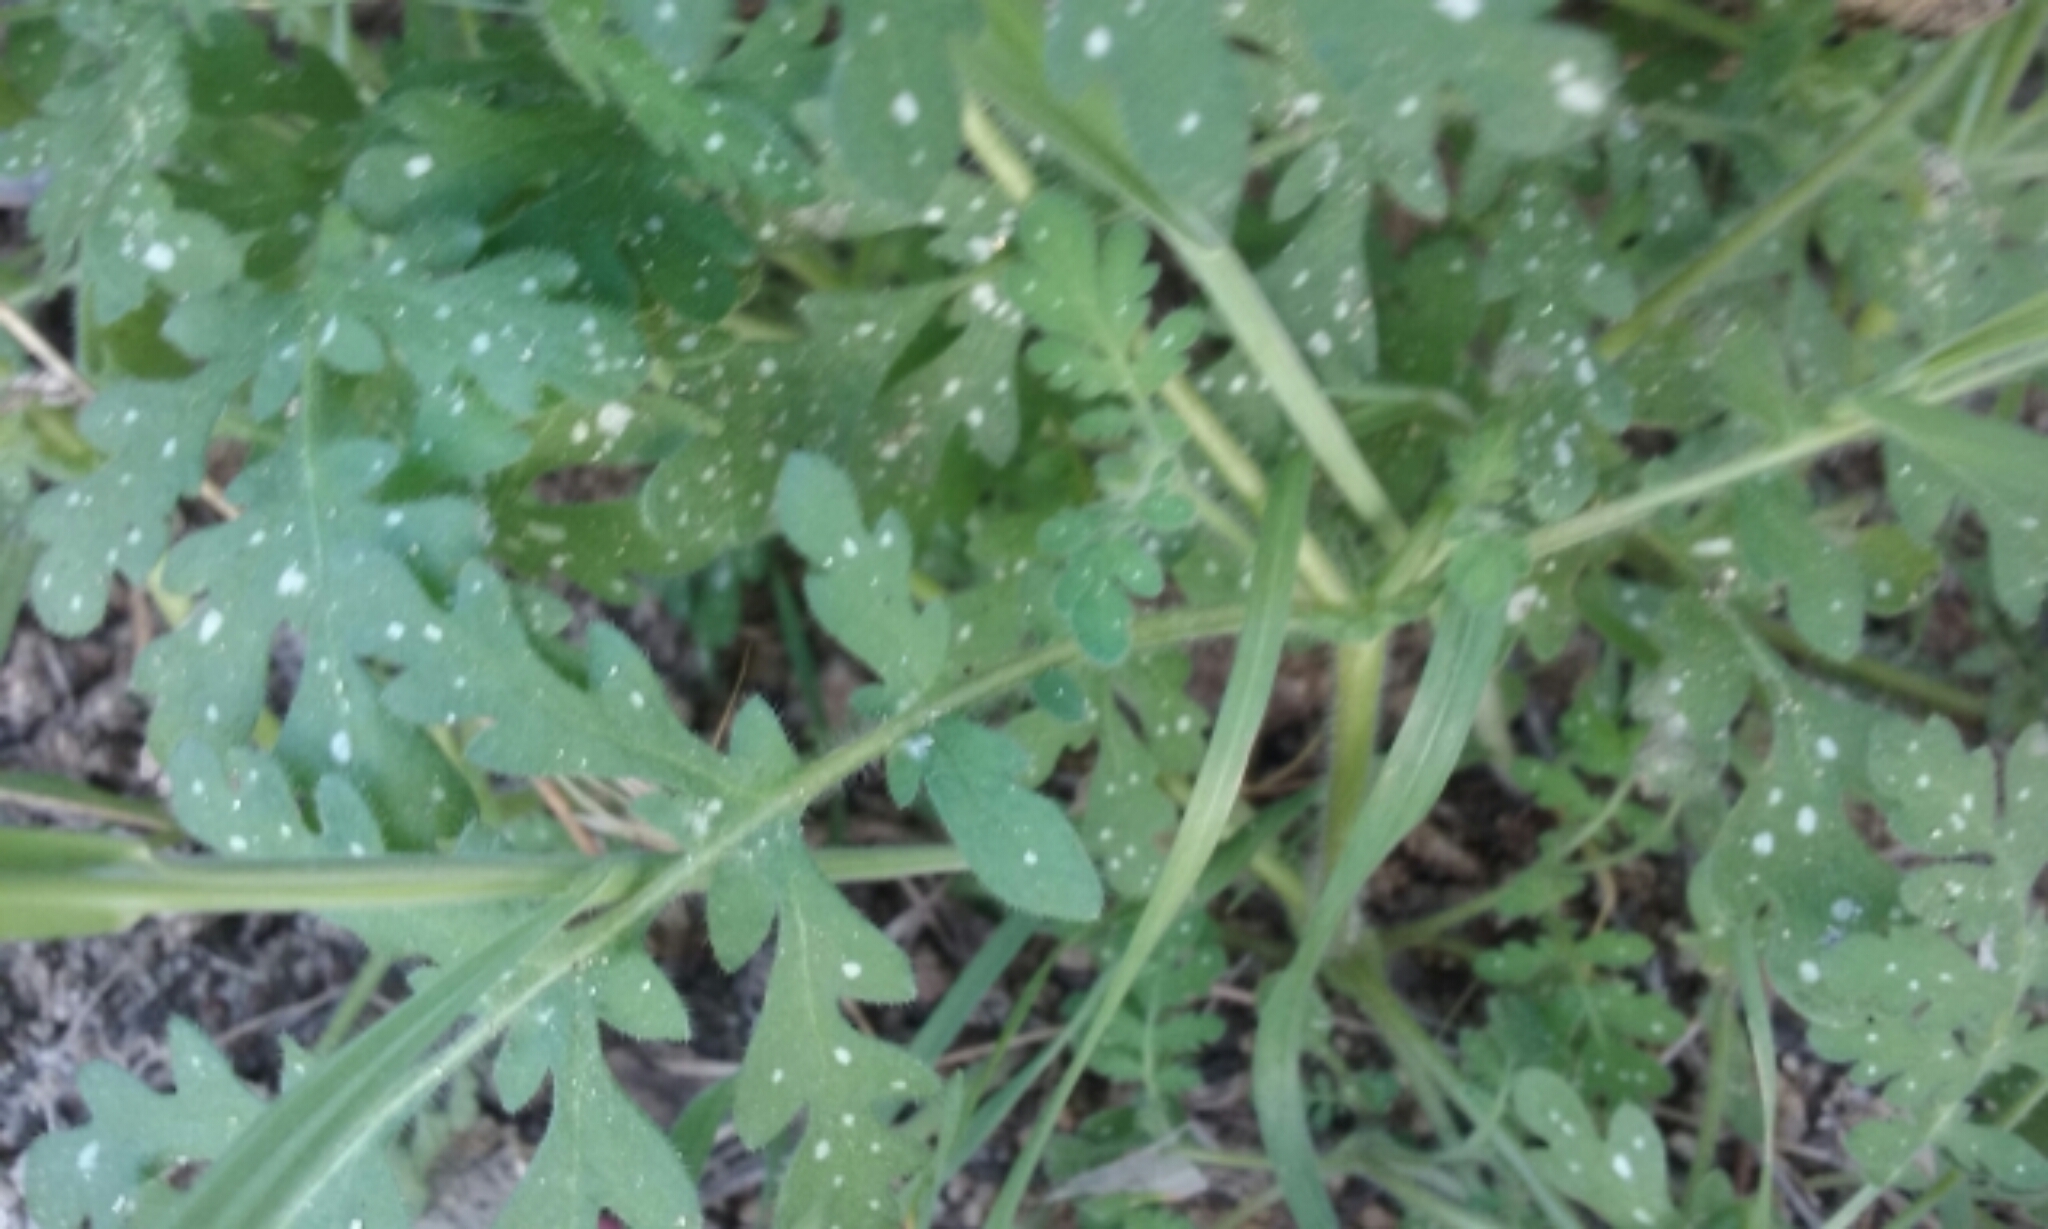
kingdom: Plantae
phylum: Tracheophyta
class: Magnoliopsida
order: Boraginales
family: Hydrophyllaceae
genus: Eucrypta
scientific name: Eucrypta chrysanthemifolia
